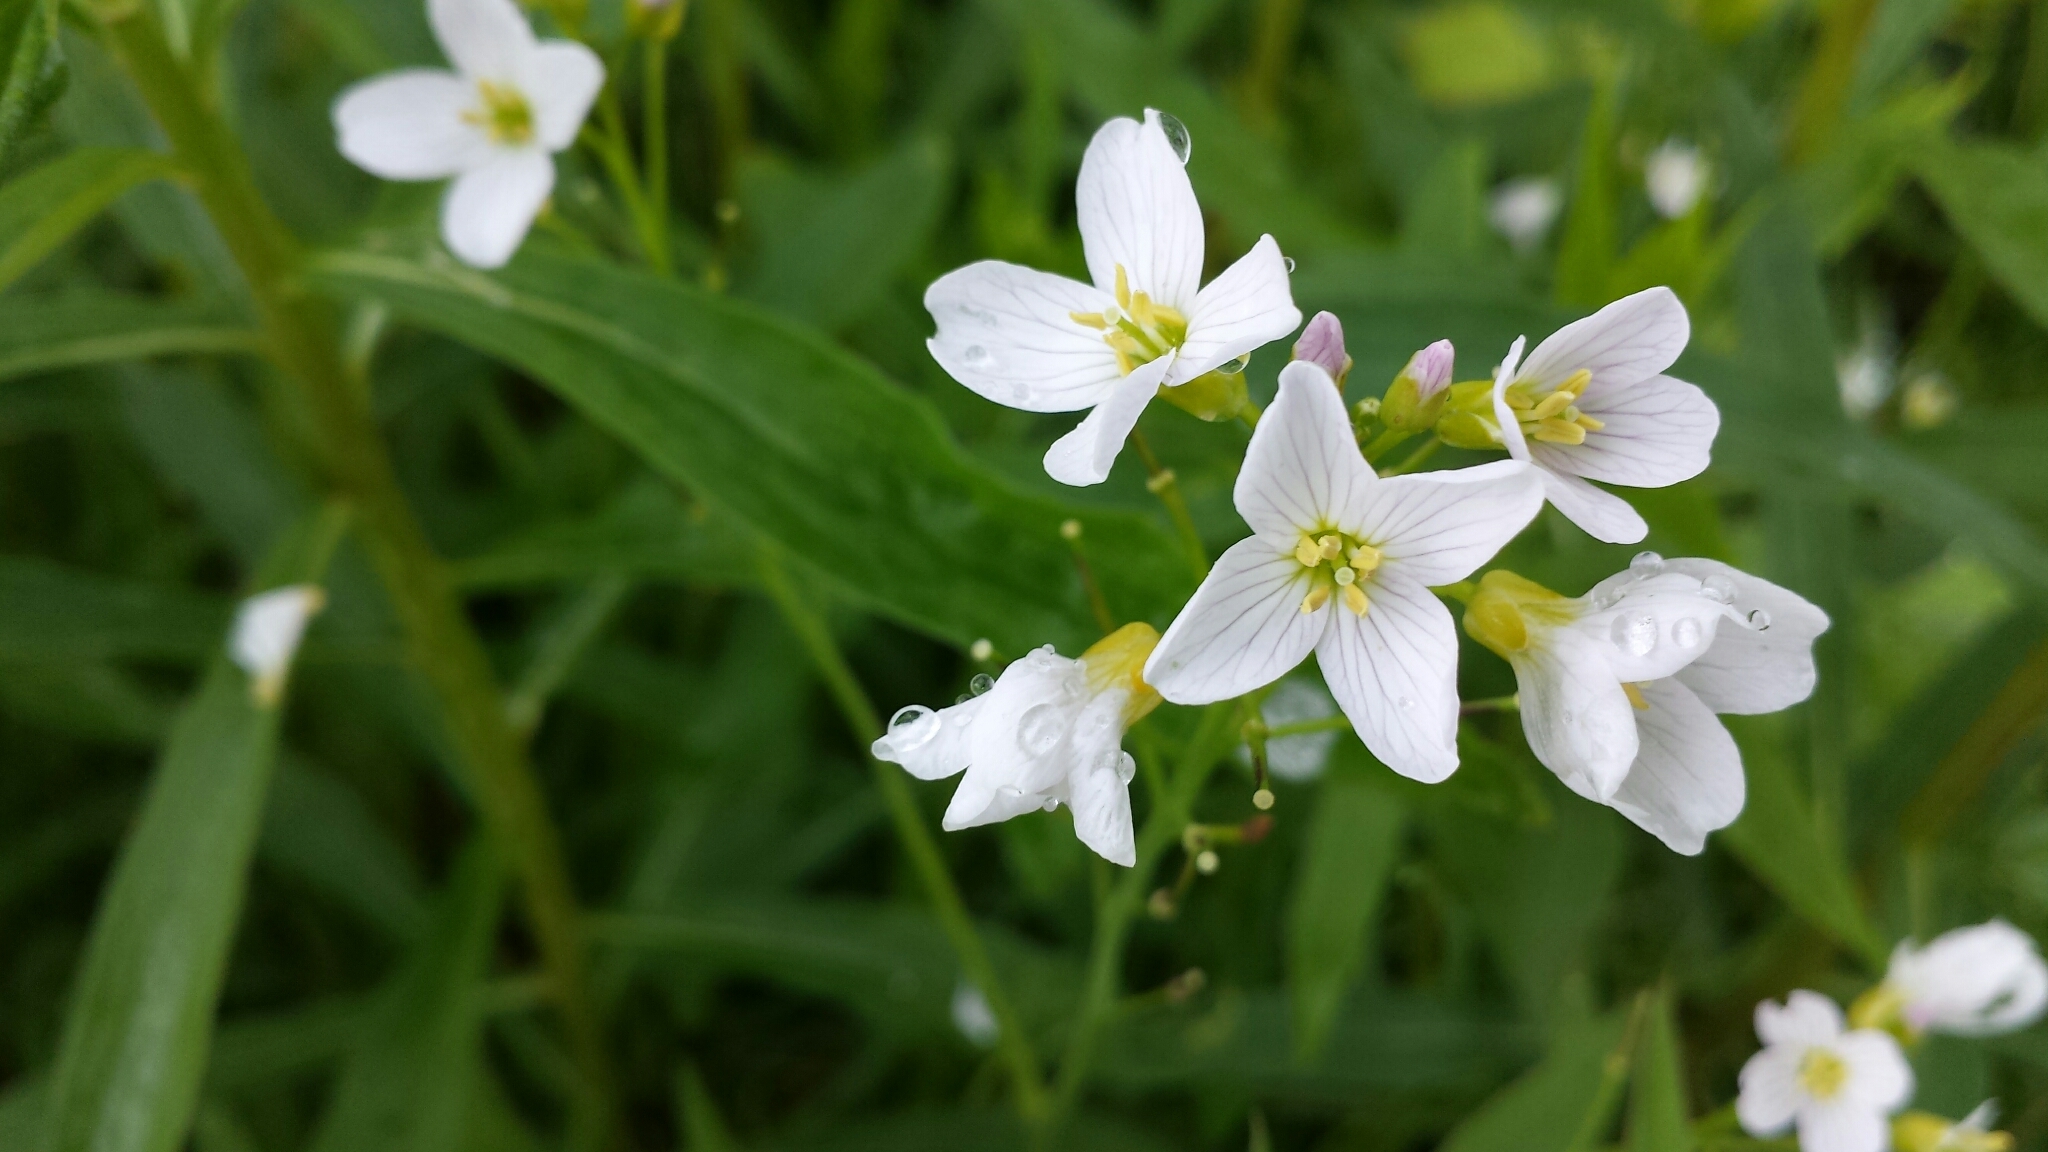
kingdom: Plantae
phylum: Tracheophyta
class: Magnoliopsida
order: Brassicales
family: Brassicaceae
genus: Cardamine
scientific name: Cardamine pratensis
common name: Cuckoo flower
